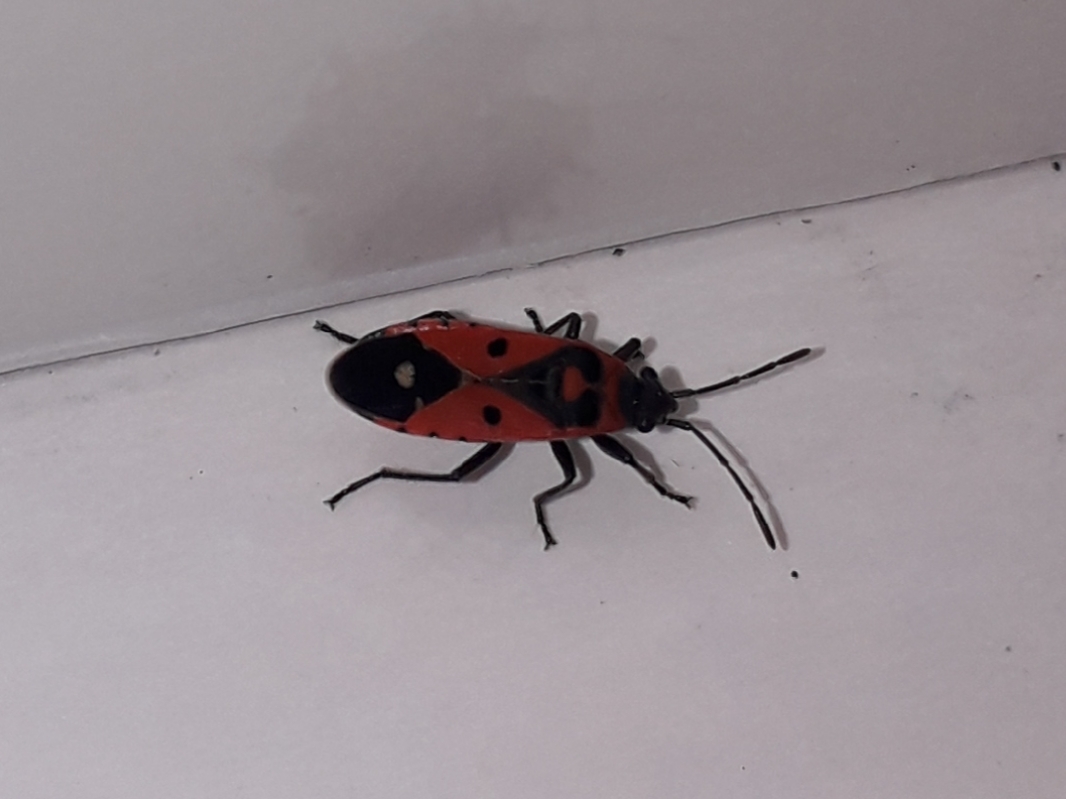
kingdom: Animalia
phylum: Arthropoda
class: Insecta
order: Hemiptera
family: Lygaeidae
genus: Melanocoryphus
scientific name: Melanocoryphus albomaculatus
